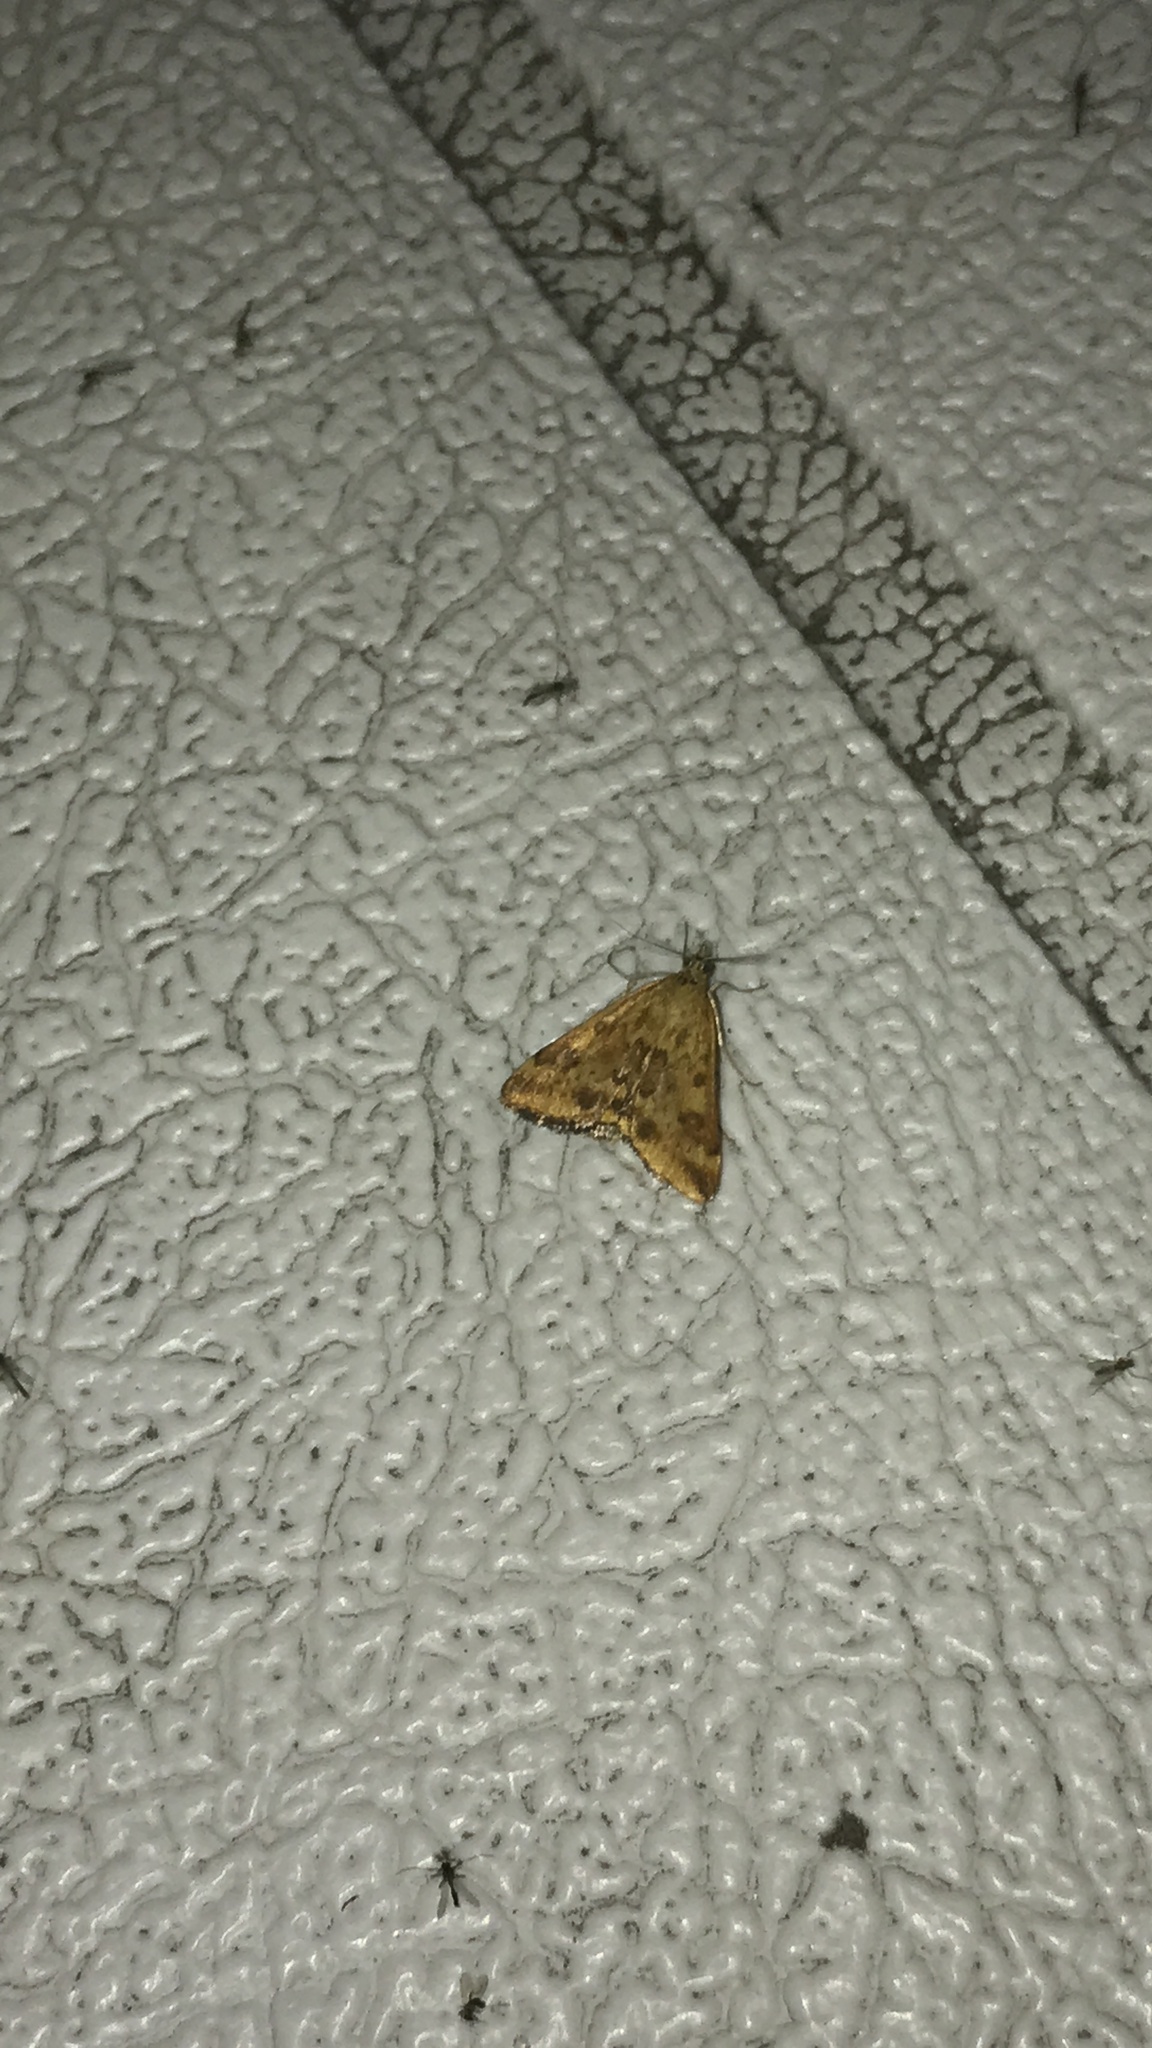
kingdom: Animalia
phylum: Arthropoda
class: Insecta
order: Lepidoptera
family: Crambidae
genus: Pyrausta
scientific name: Pyrausta subsequalis
